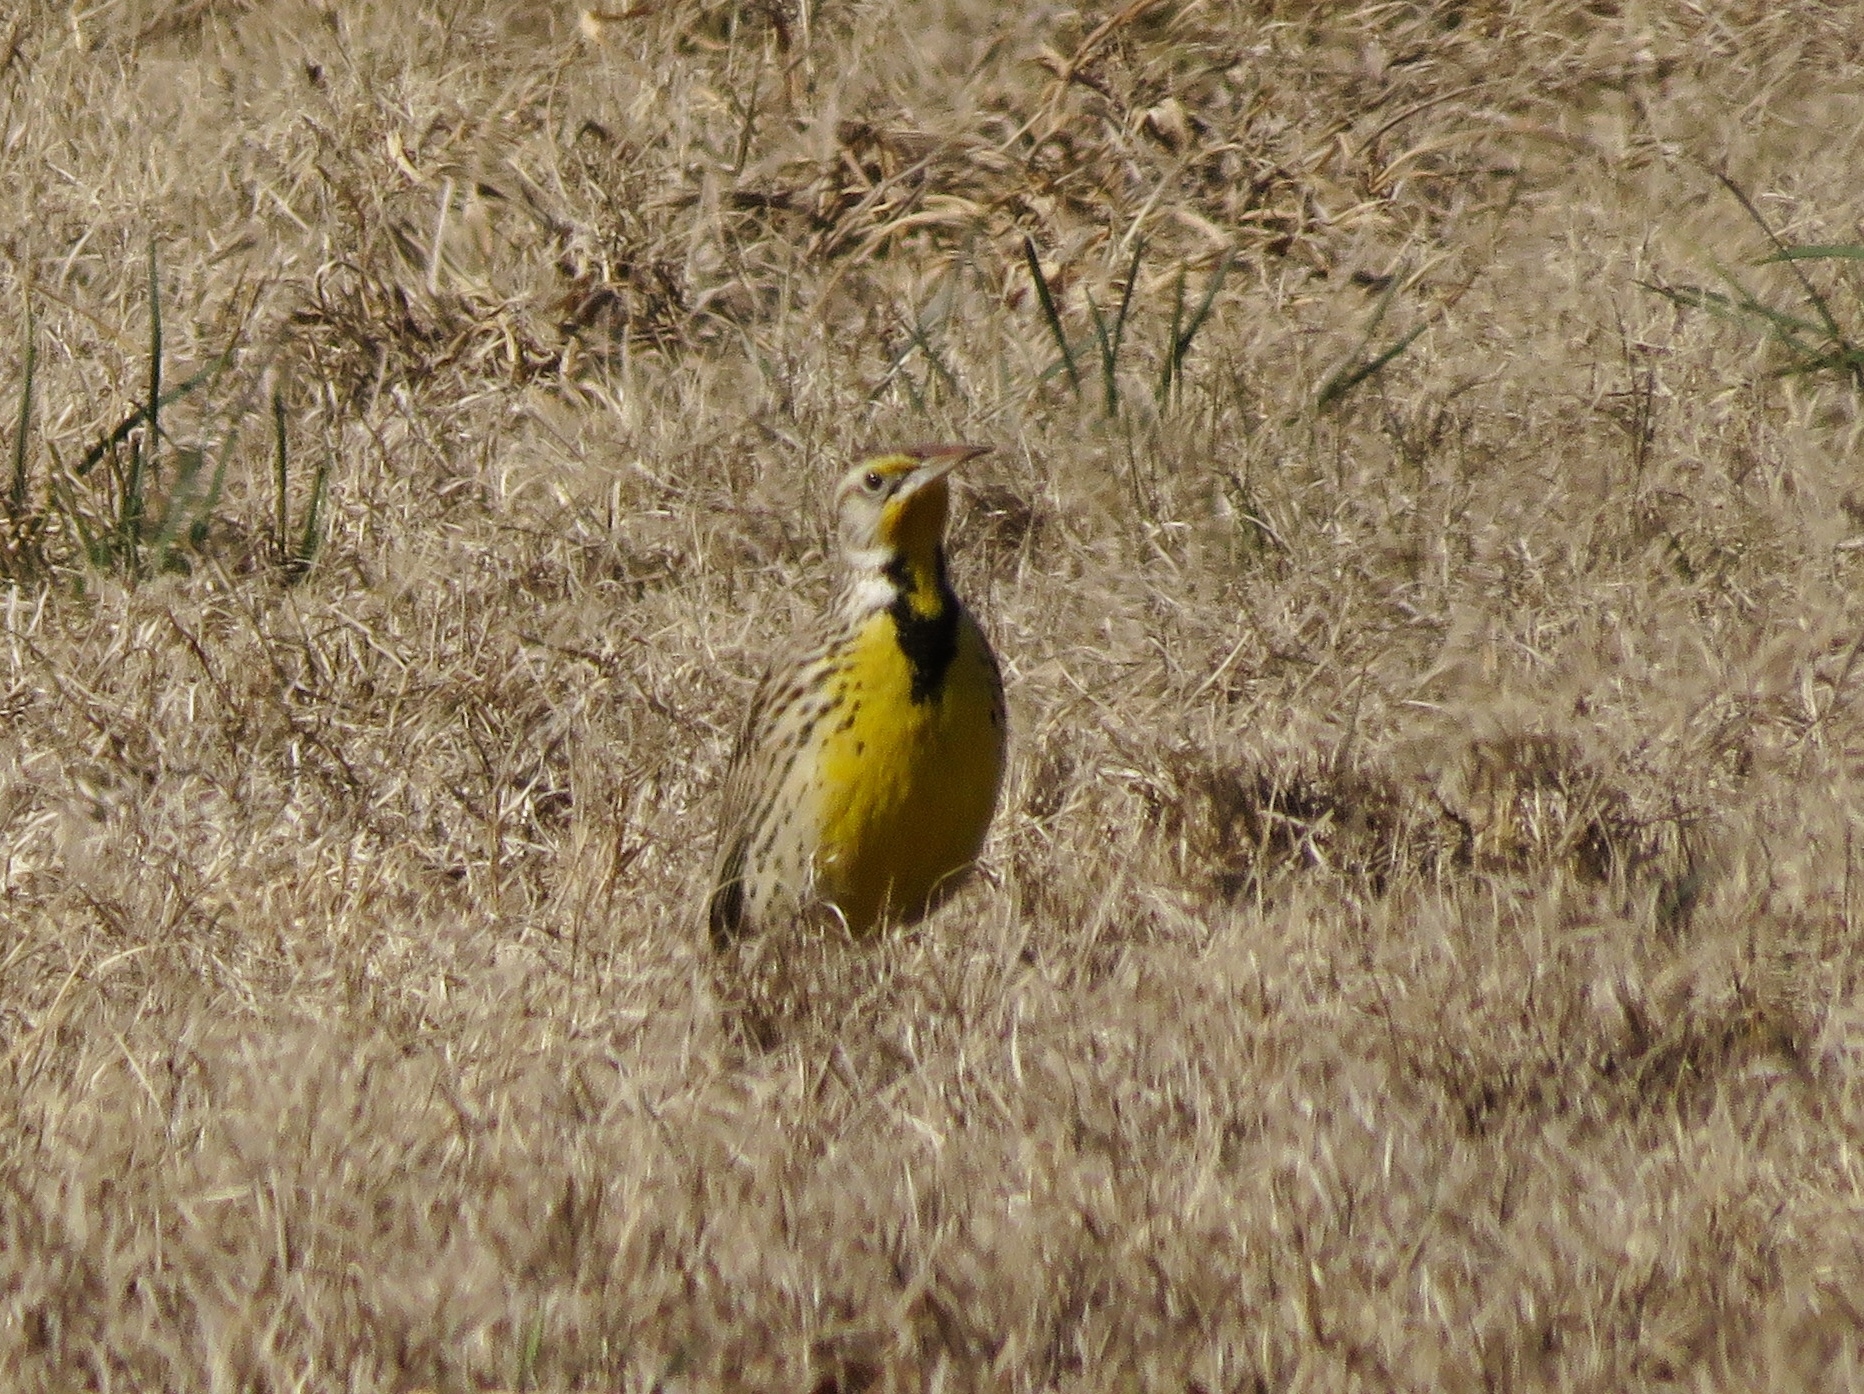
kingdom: Animalia
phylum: Chordata
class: Aves
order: Passeriformes
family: Icteridae
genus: Sturnella
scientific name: Sturnella neglecta
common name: Western meadowlark
